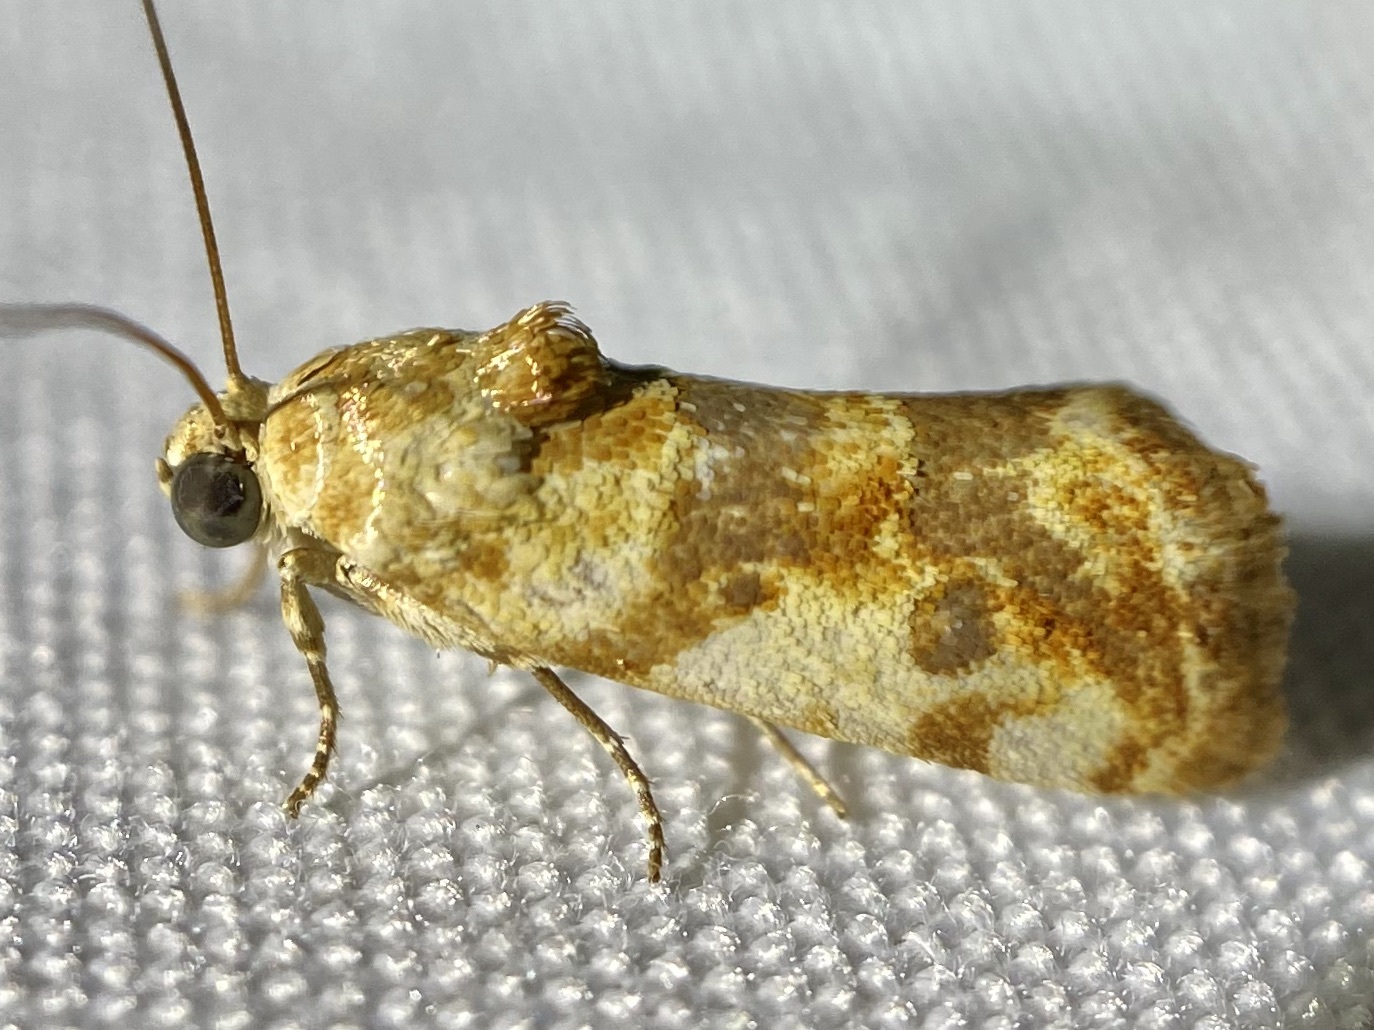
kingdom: Animalia
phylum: Arthropoda
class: Insecta
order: Lepidoptera
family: Noctuidae
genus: Acontia
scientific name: Acontia obatra
